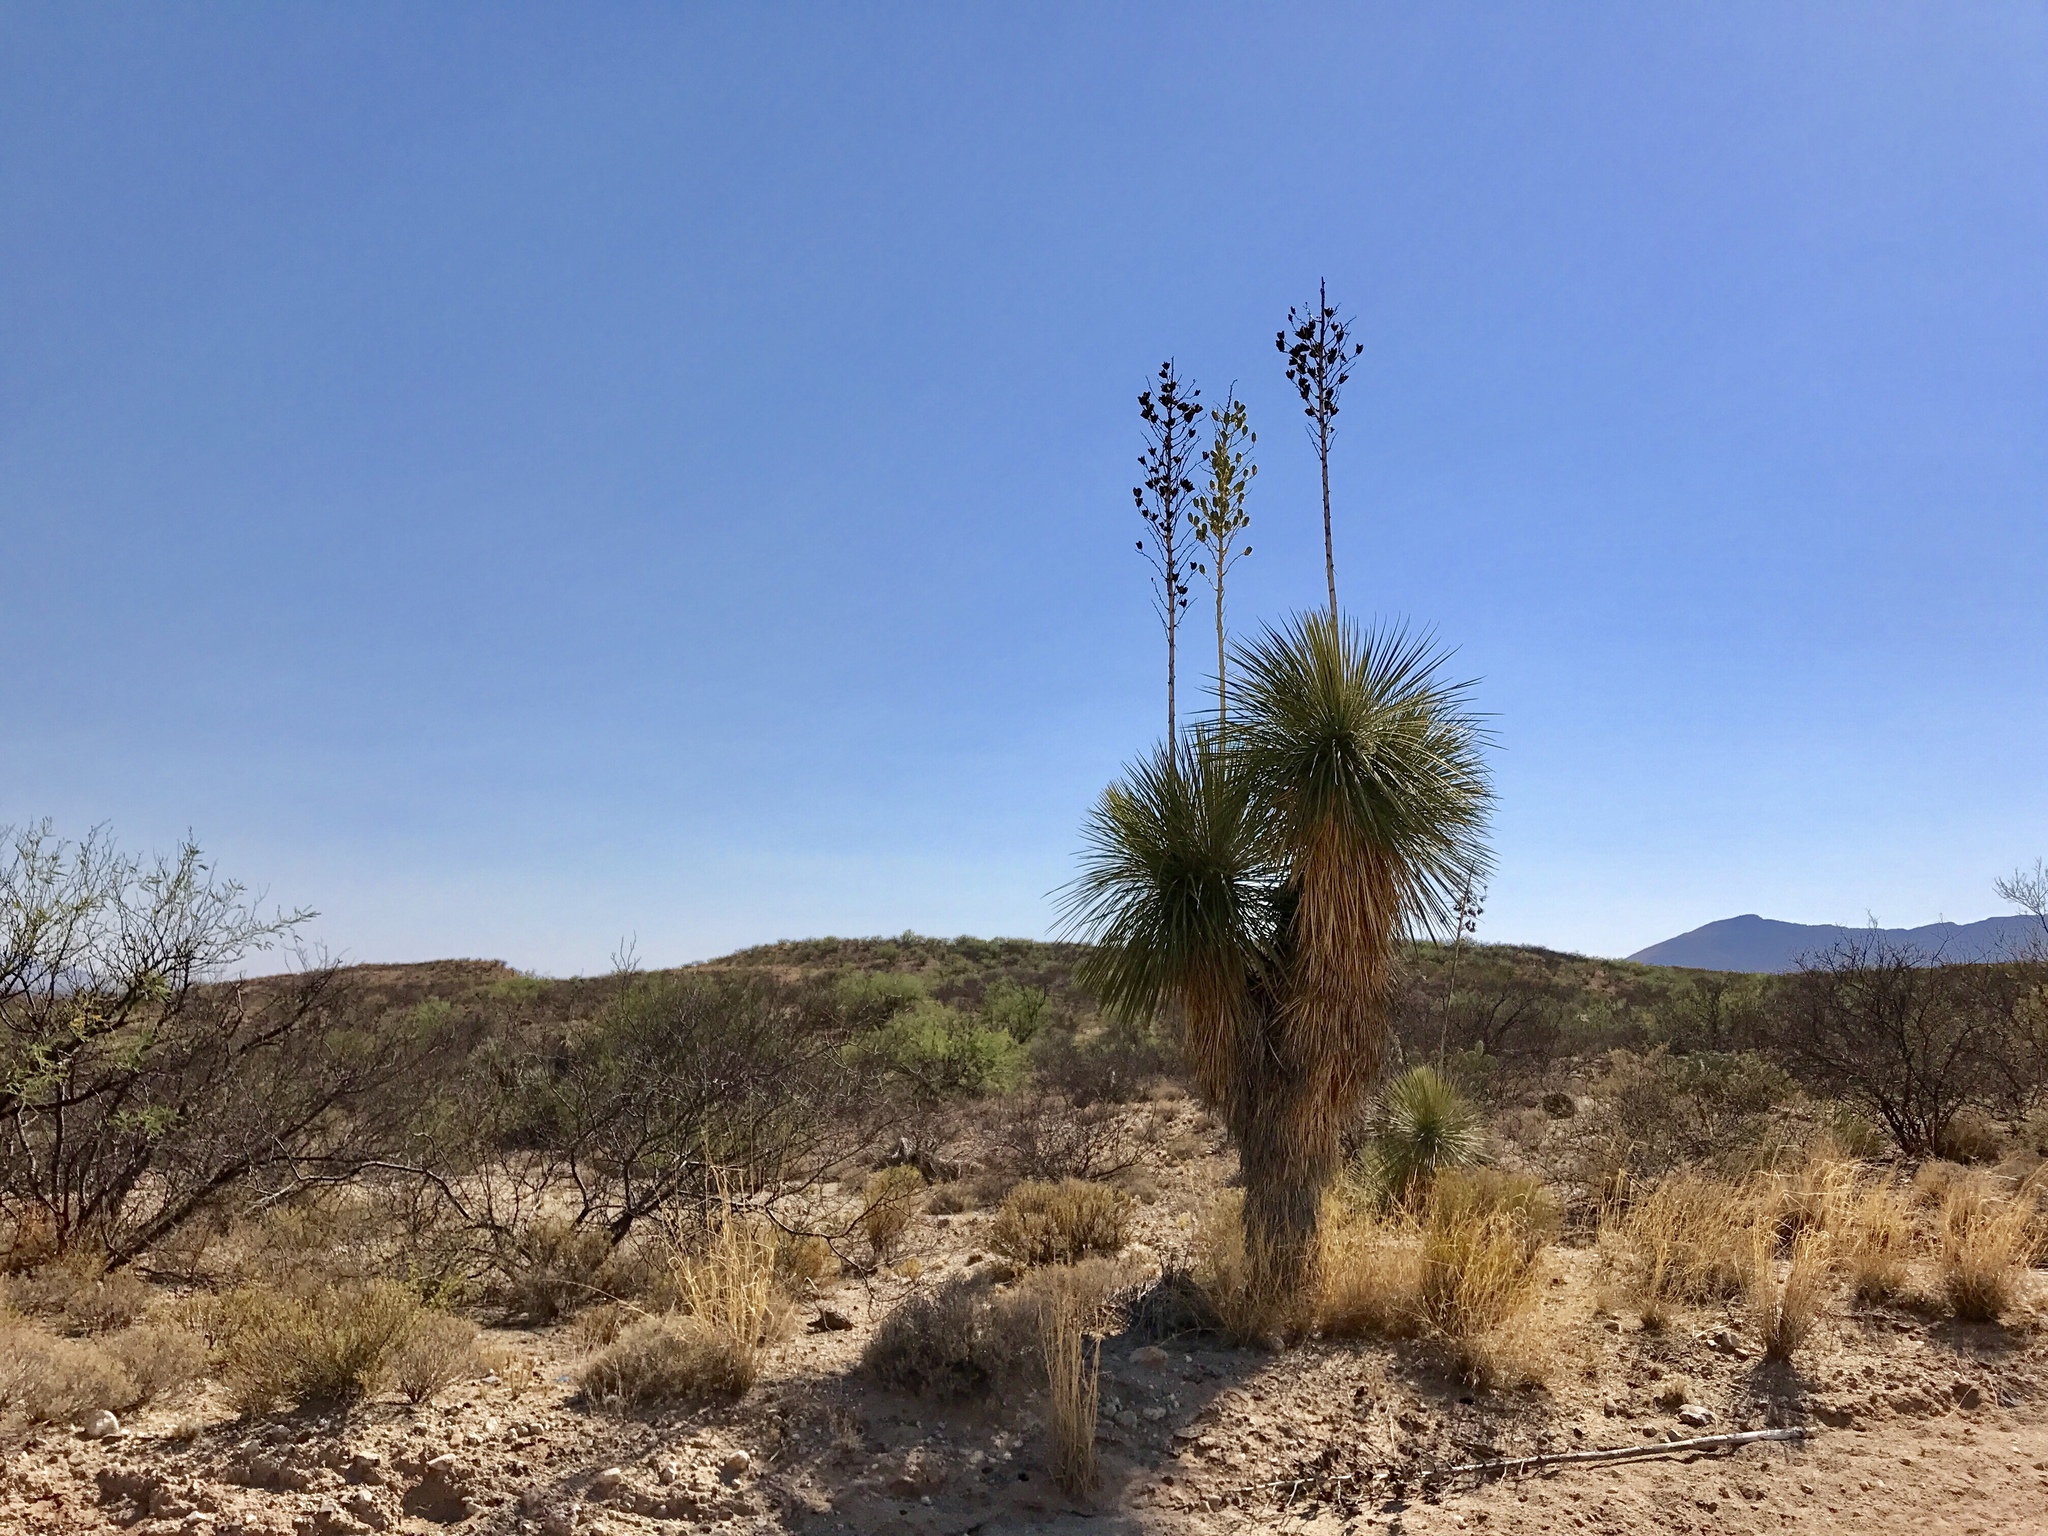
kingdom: Plantae
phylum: Tracheophyta
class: Liliopsida
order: Asparagales
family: Asparagaceae
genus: Yucca
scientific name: Yucca elata
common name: Palmella
